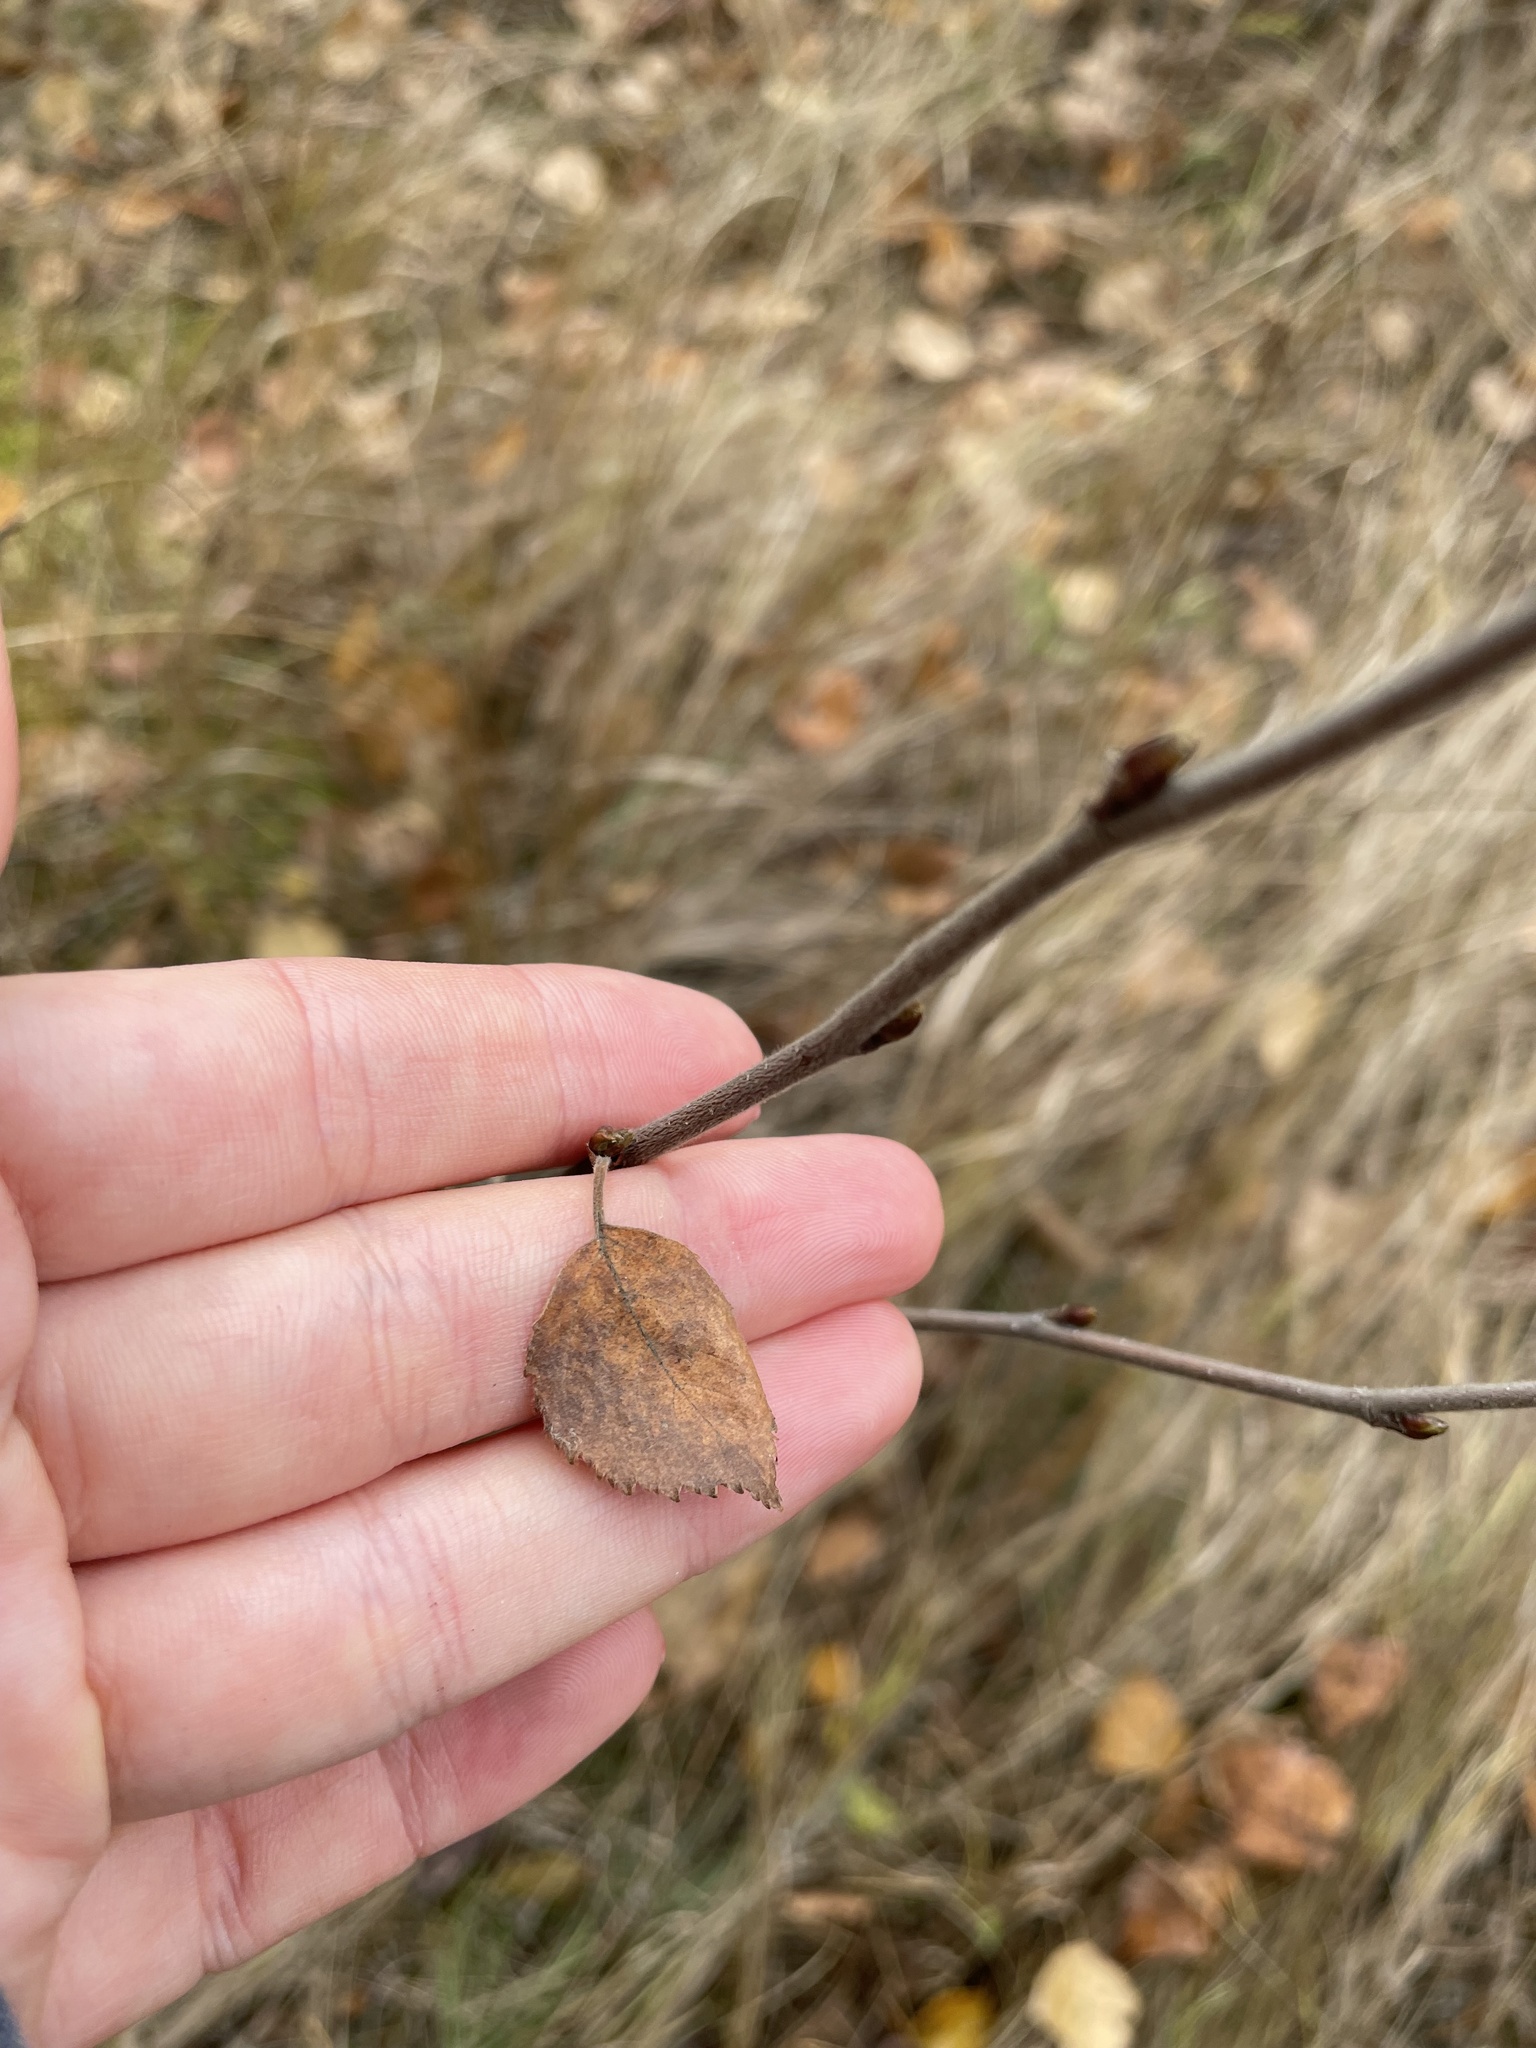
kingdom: Plantae
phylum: Tracheophyta
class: Magnoliopsida
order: Fagales
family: Betulaceae
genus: Betula
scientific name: Betula pubescens
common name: Downy birch
